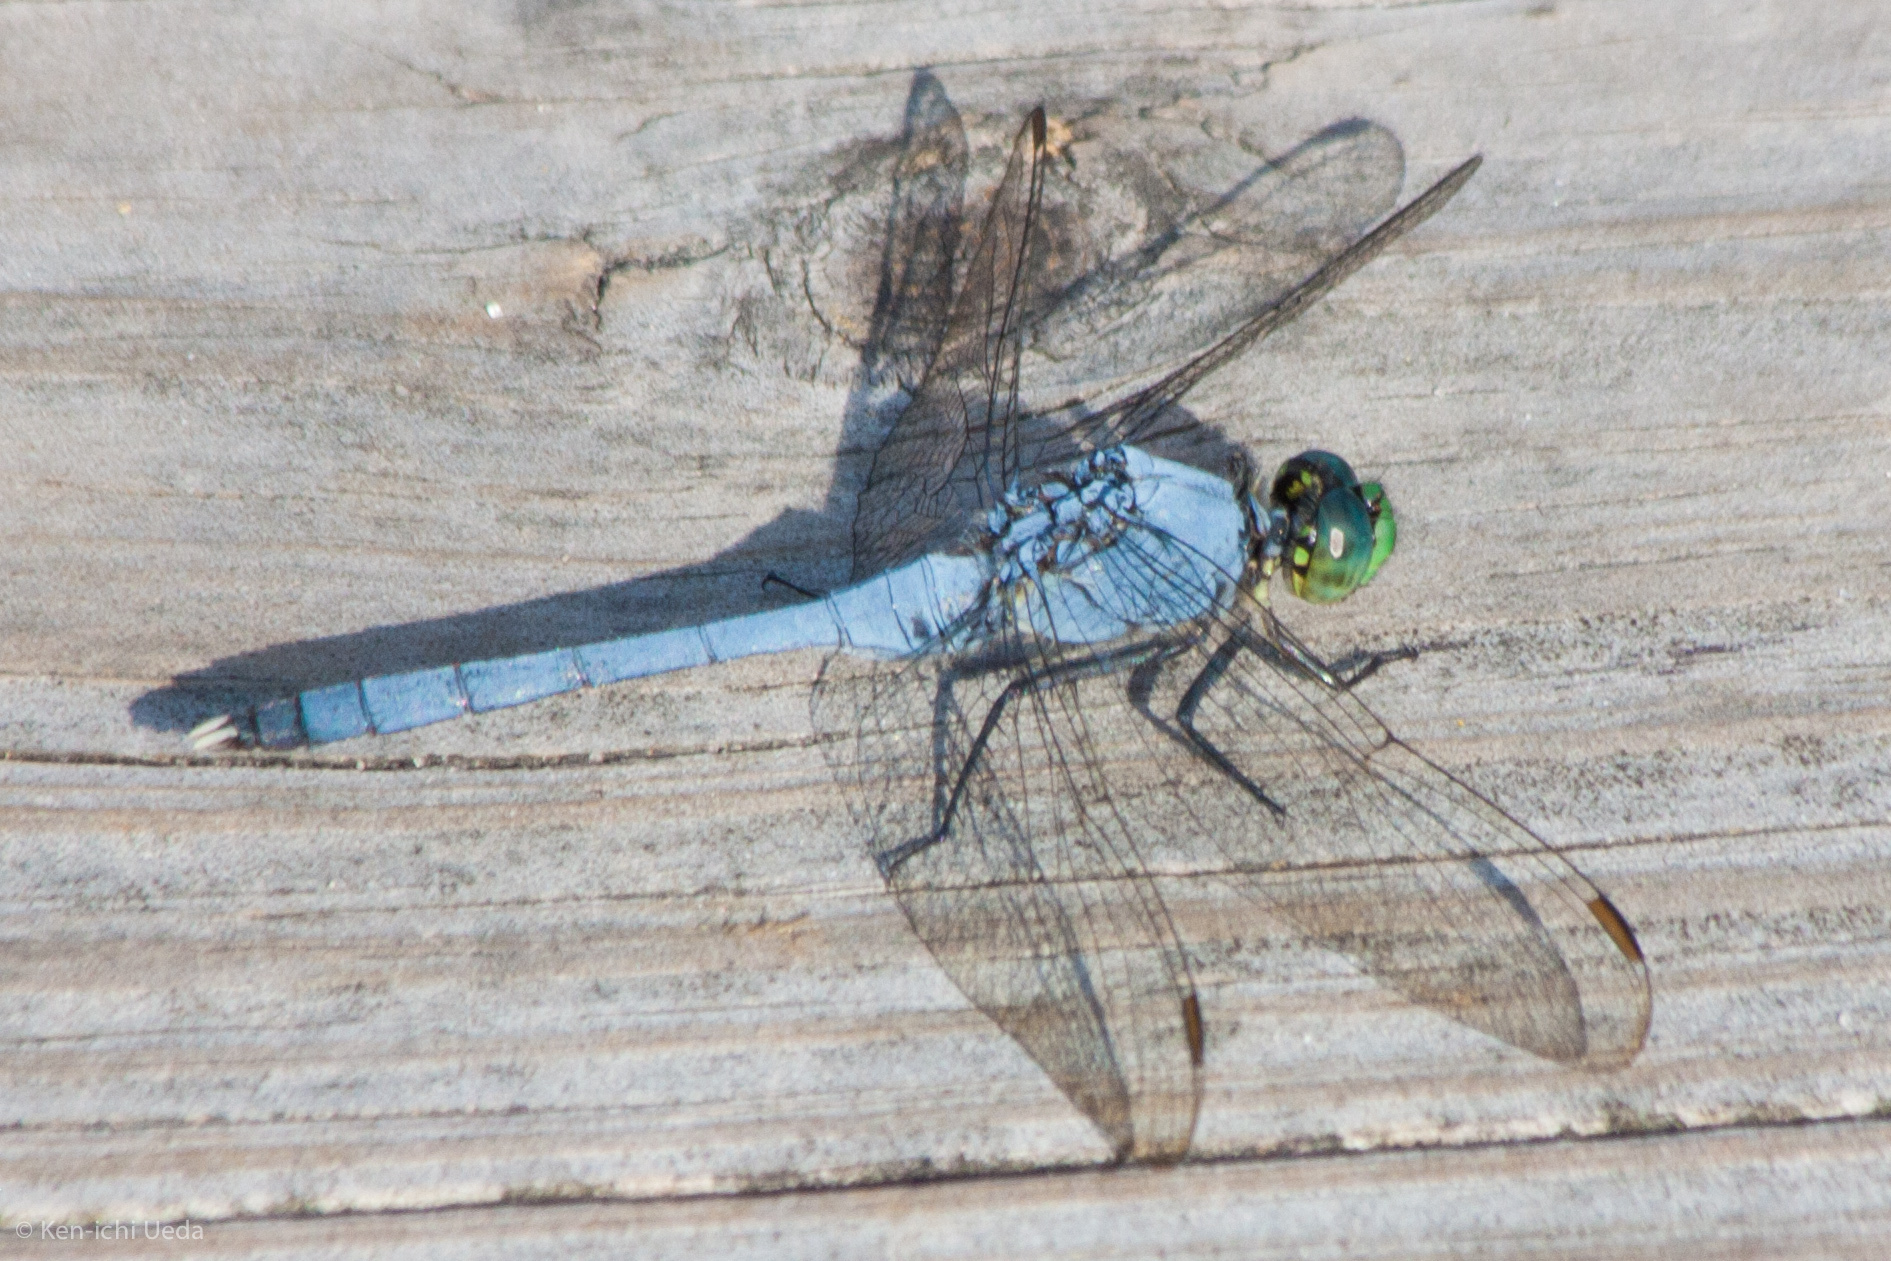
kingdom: Animalia
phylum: Arthropoda
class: Insecta
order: Odonata
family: Libellulidae
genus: Erythemis
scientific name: Erythemis simplicicollis
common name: Eastern pondhawk
